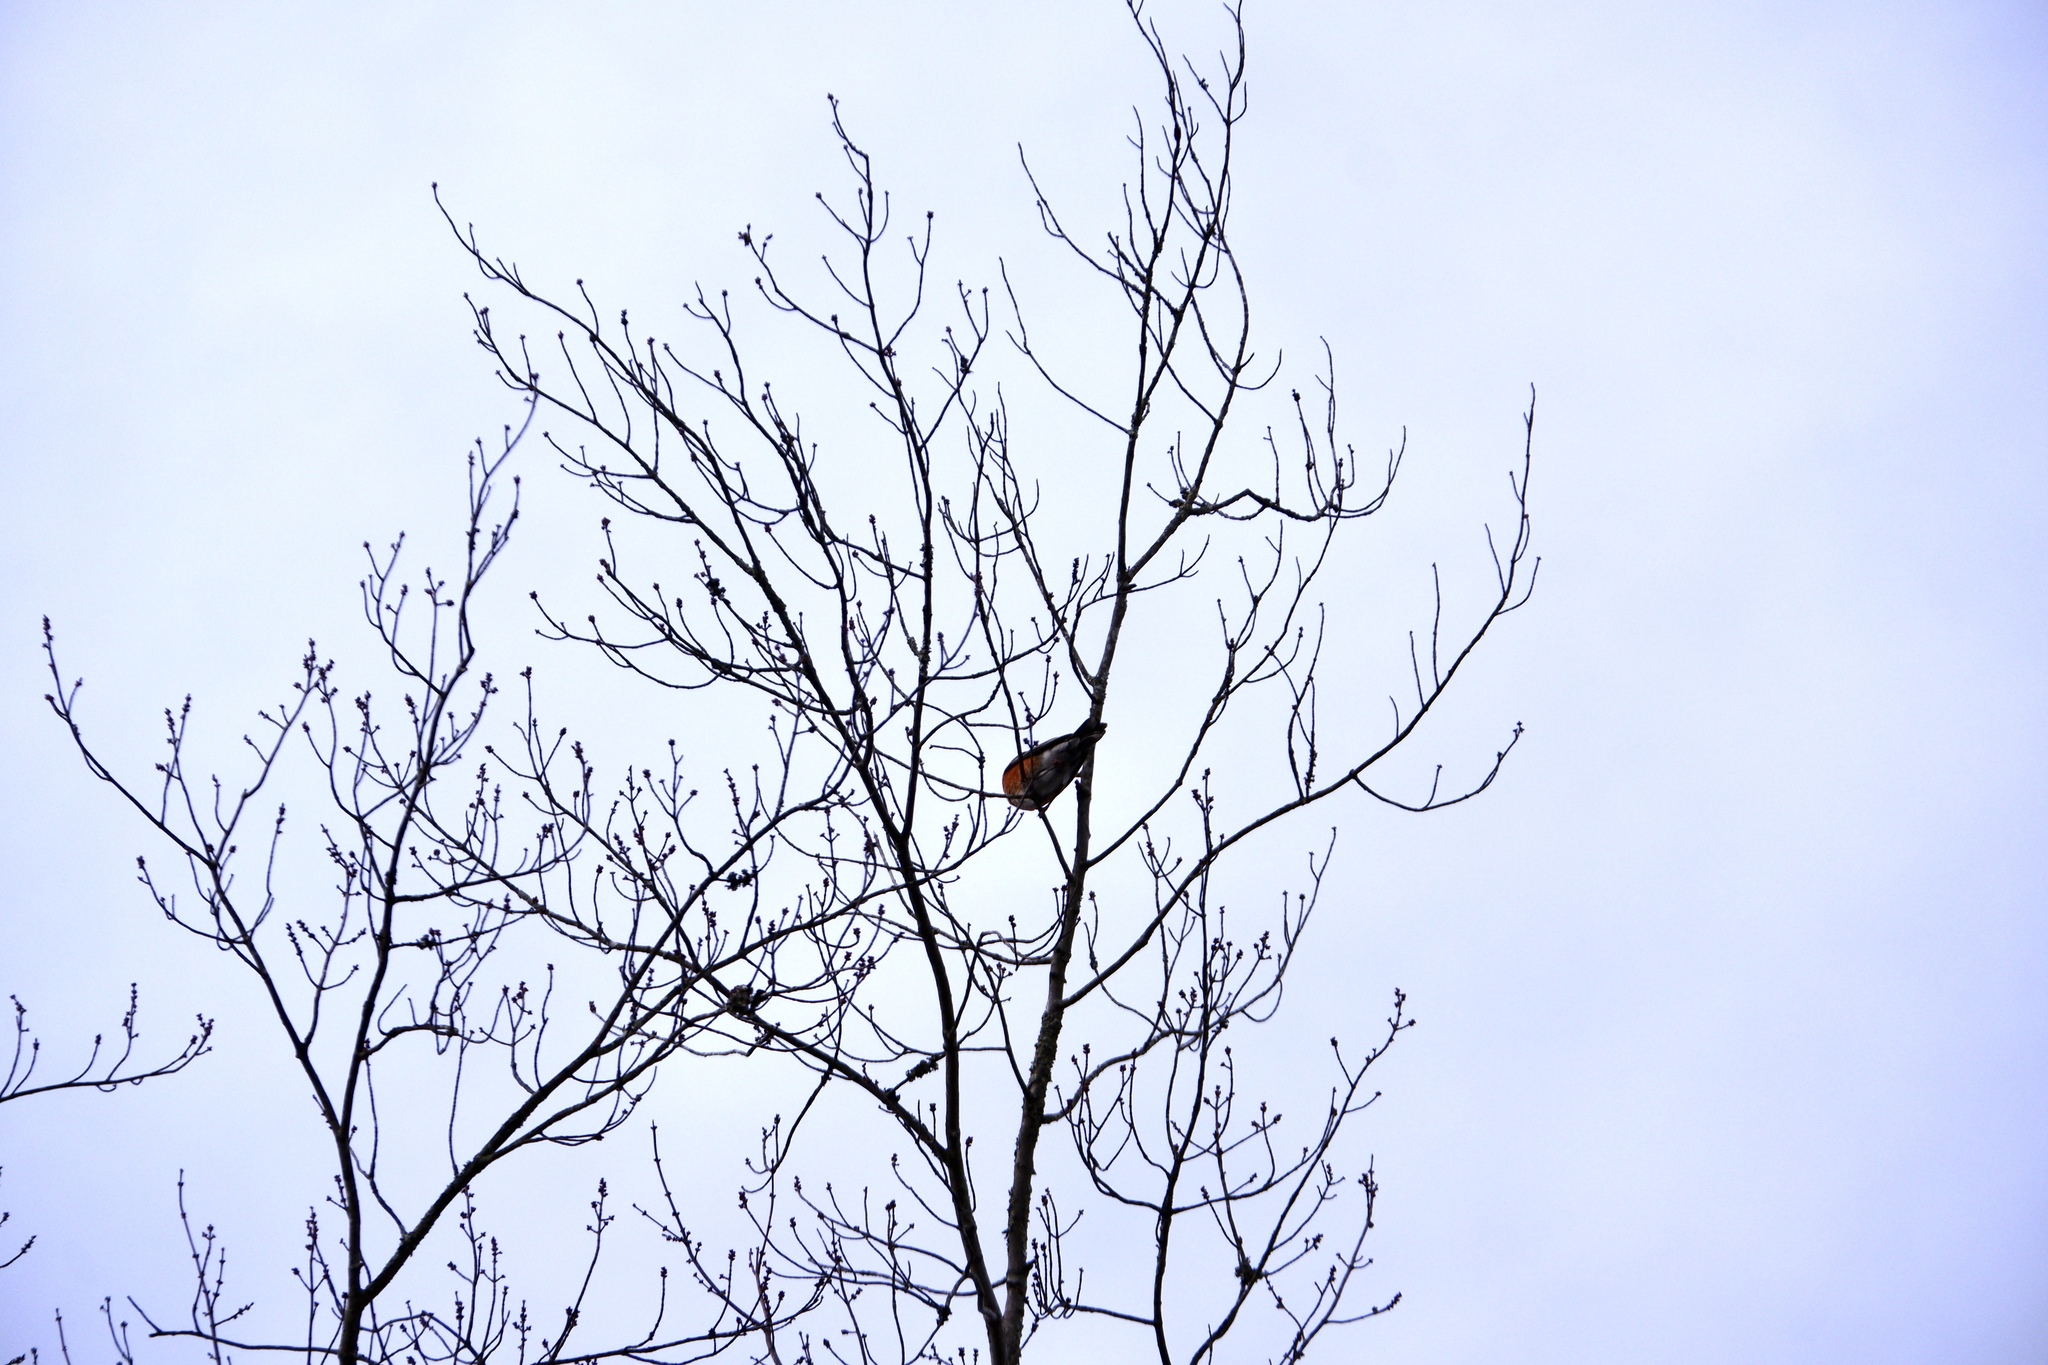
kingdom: Animalia
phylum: Chordata
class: Aves
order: Passeriformes
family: Turdidae
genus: Turdus
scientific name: Turdus migratorius
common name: American robin
